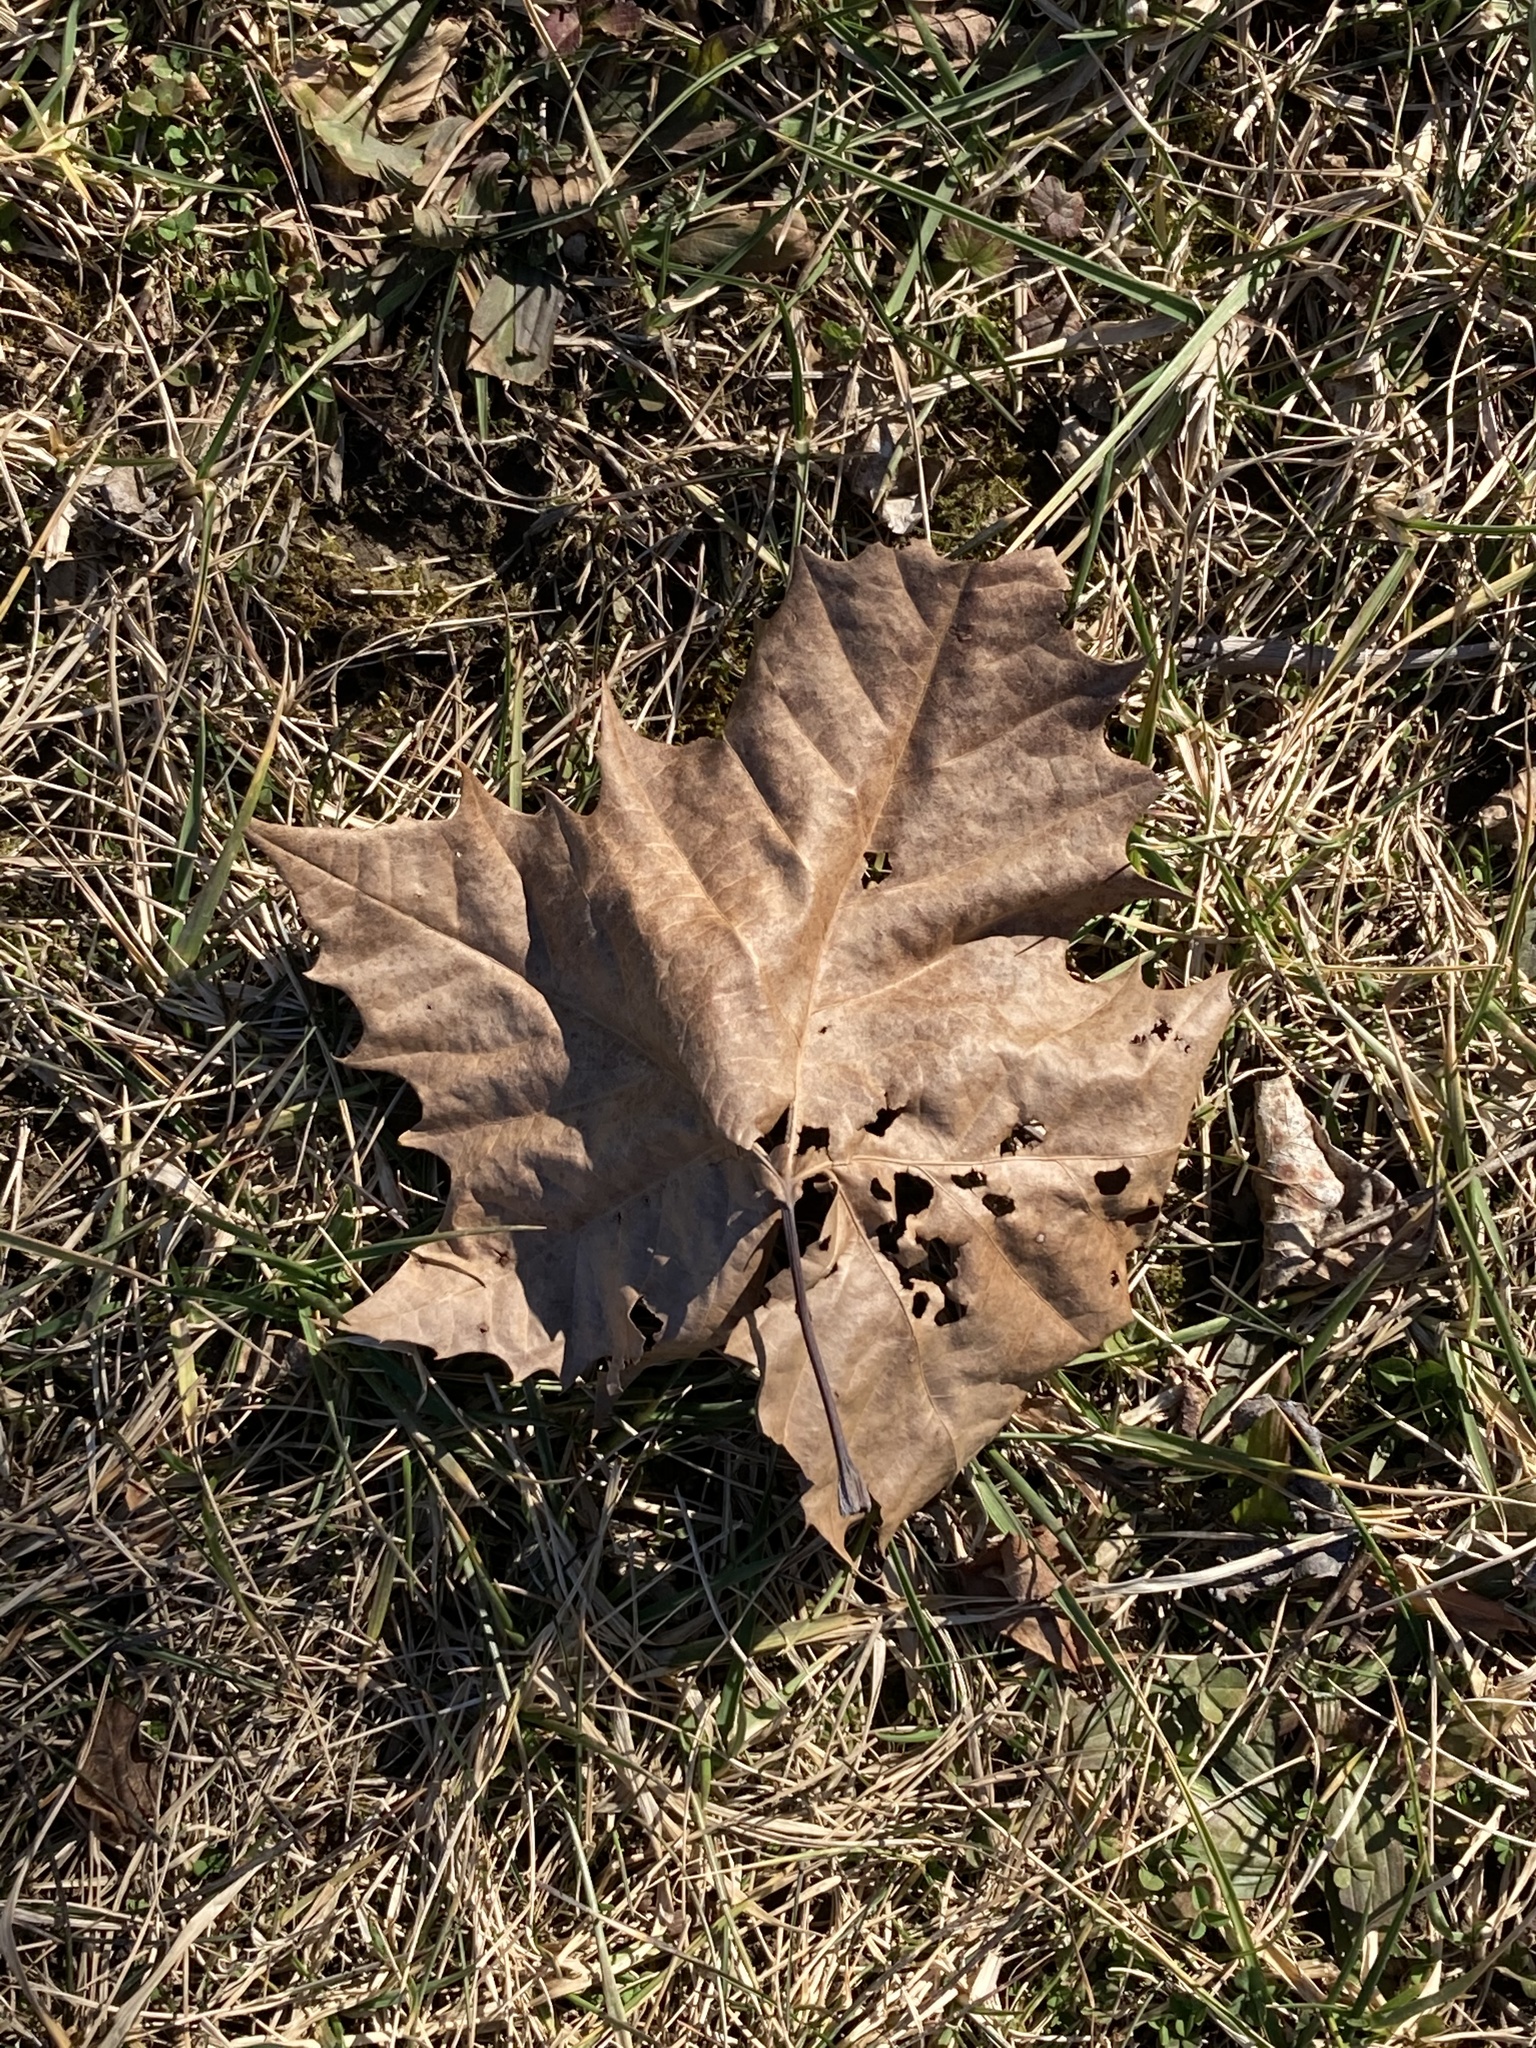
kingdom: Plantae
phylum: Tracheophyta
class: Magnoliopsida
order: Proteales
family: Platanaceae
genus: Platanus
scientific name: Platanus occidentalis
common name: American sycamore
